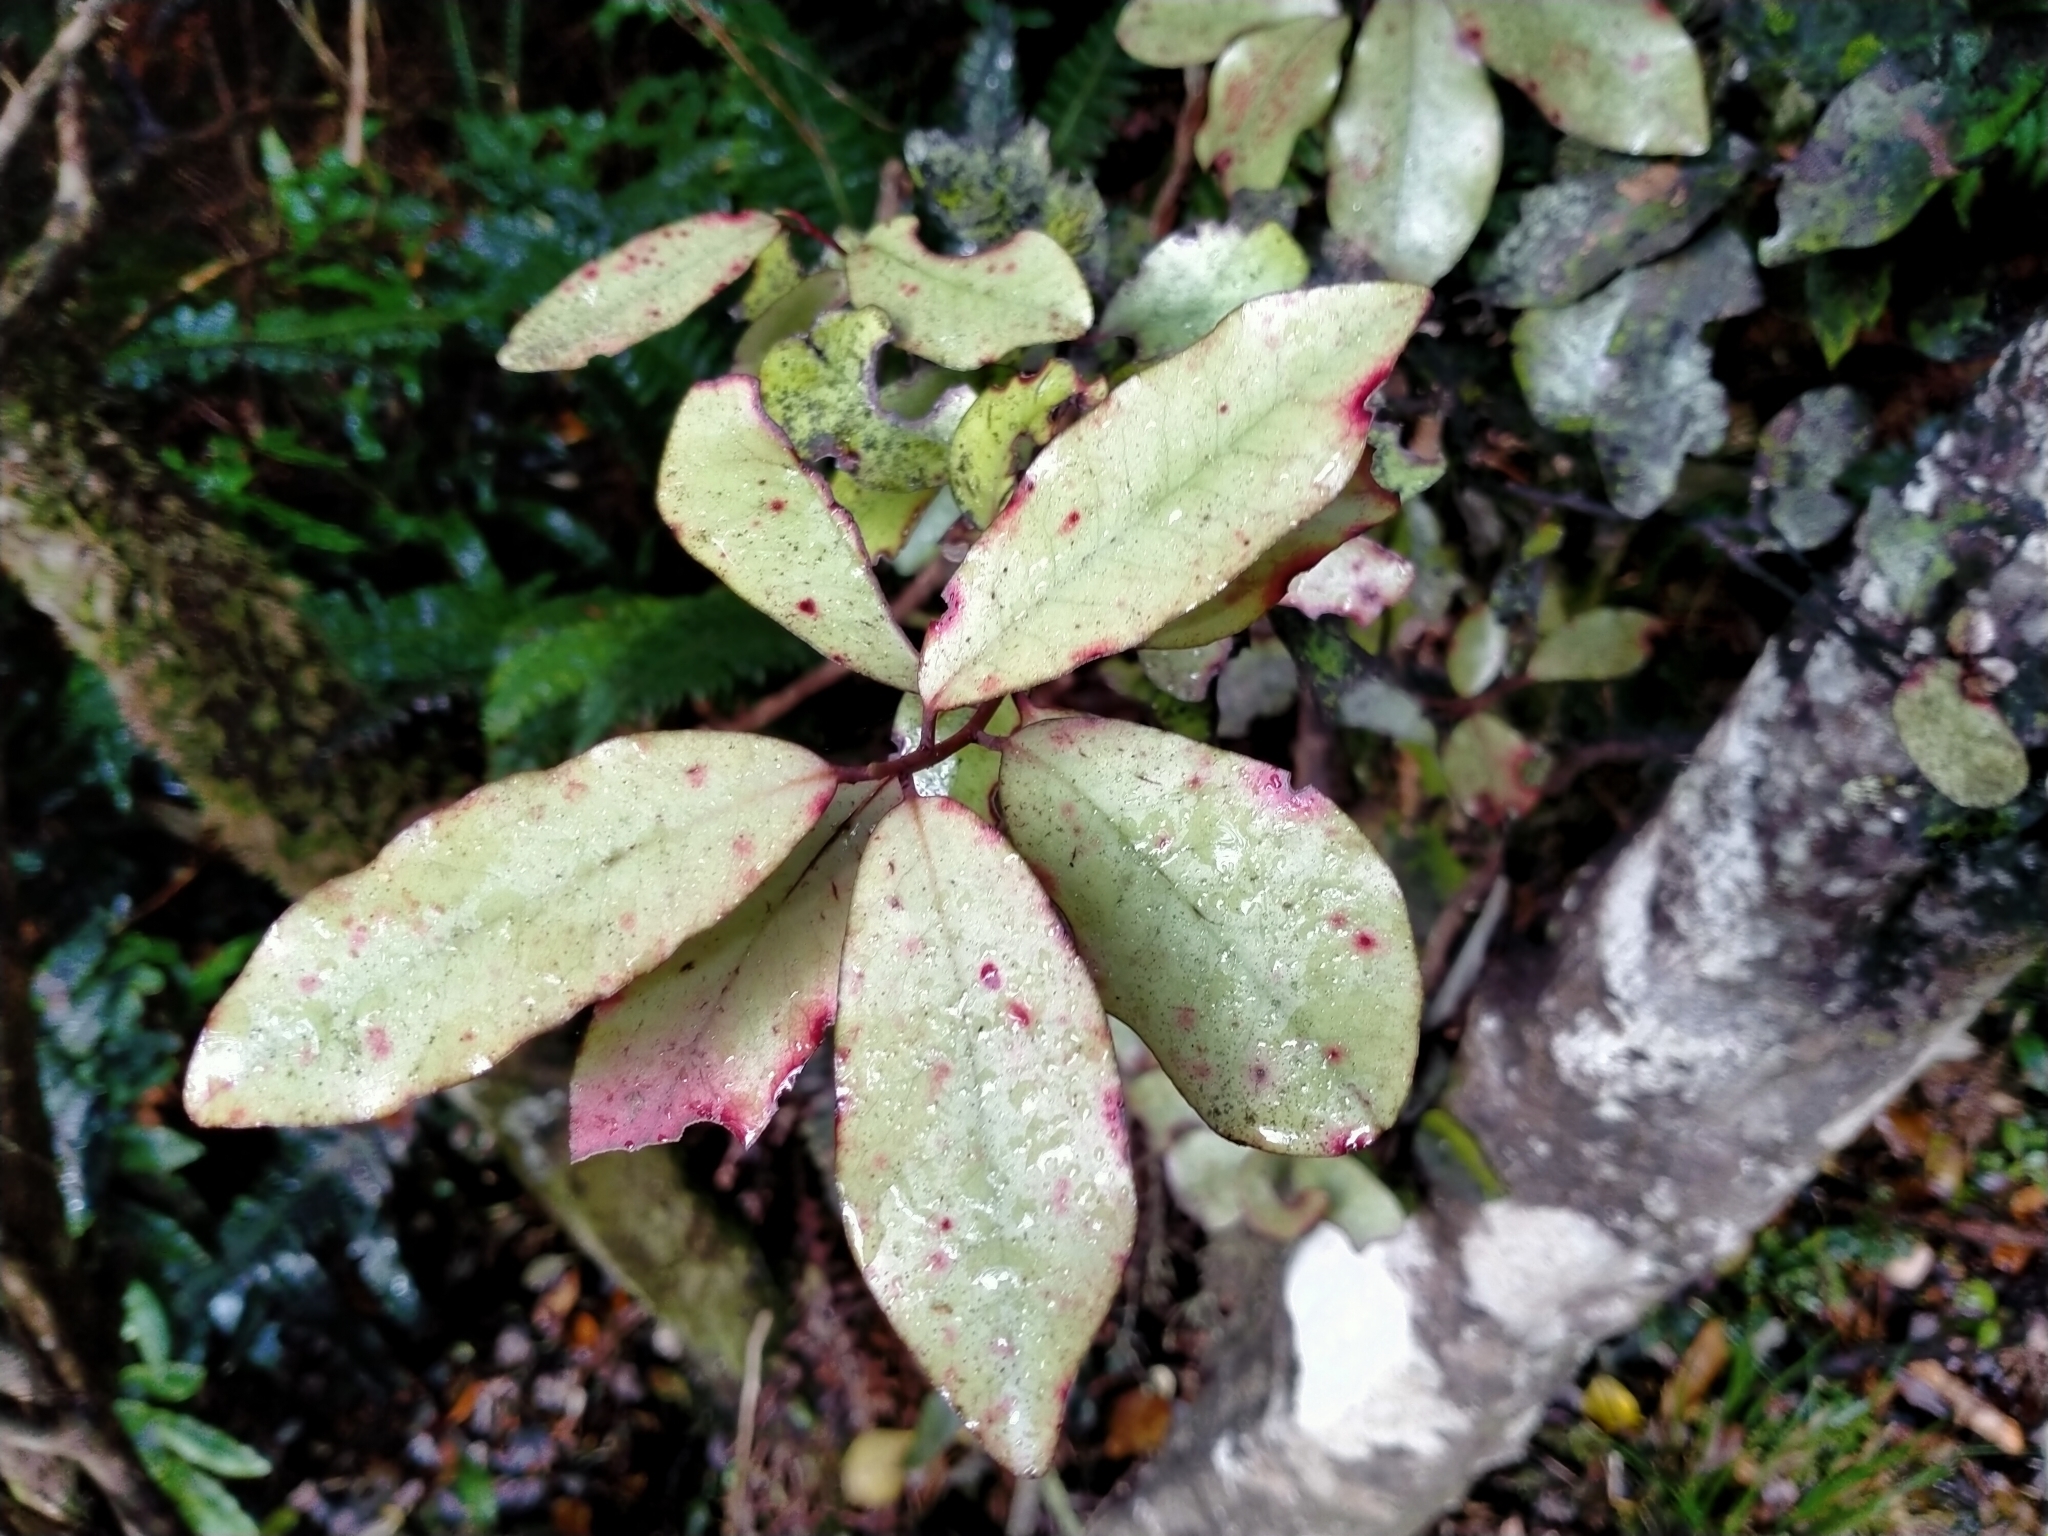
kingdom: Plantae
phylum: Tracheophyta
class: Magnoliopsida
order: Canellales
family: Winteraceae
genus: Pseudowintera
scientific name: Pseudowintera colorata
